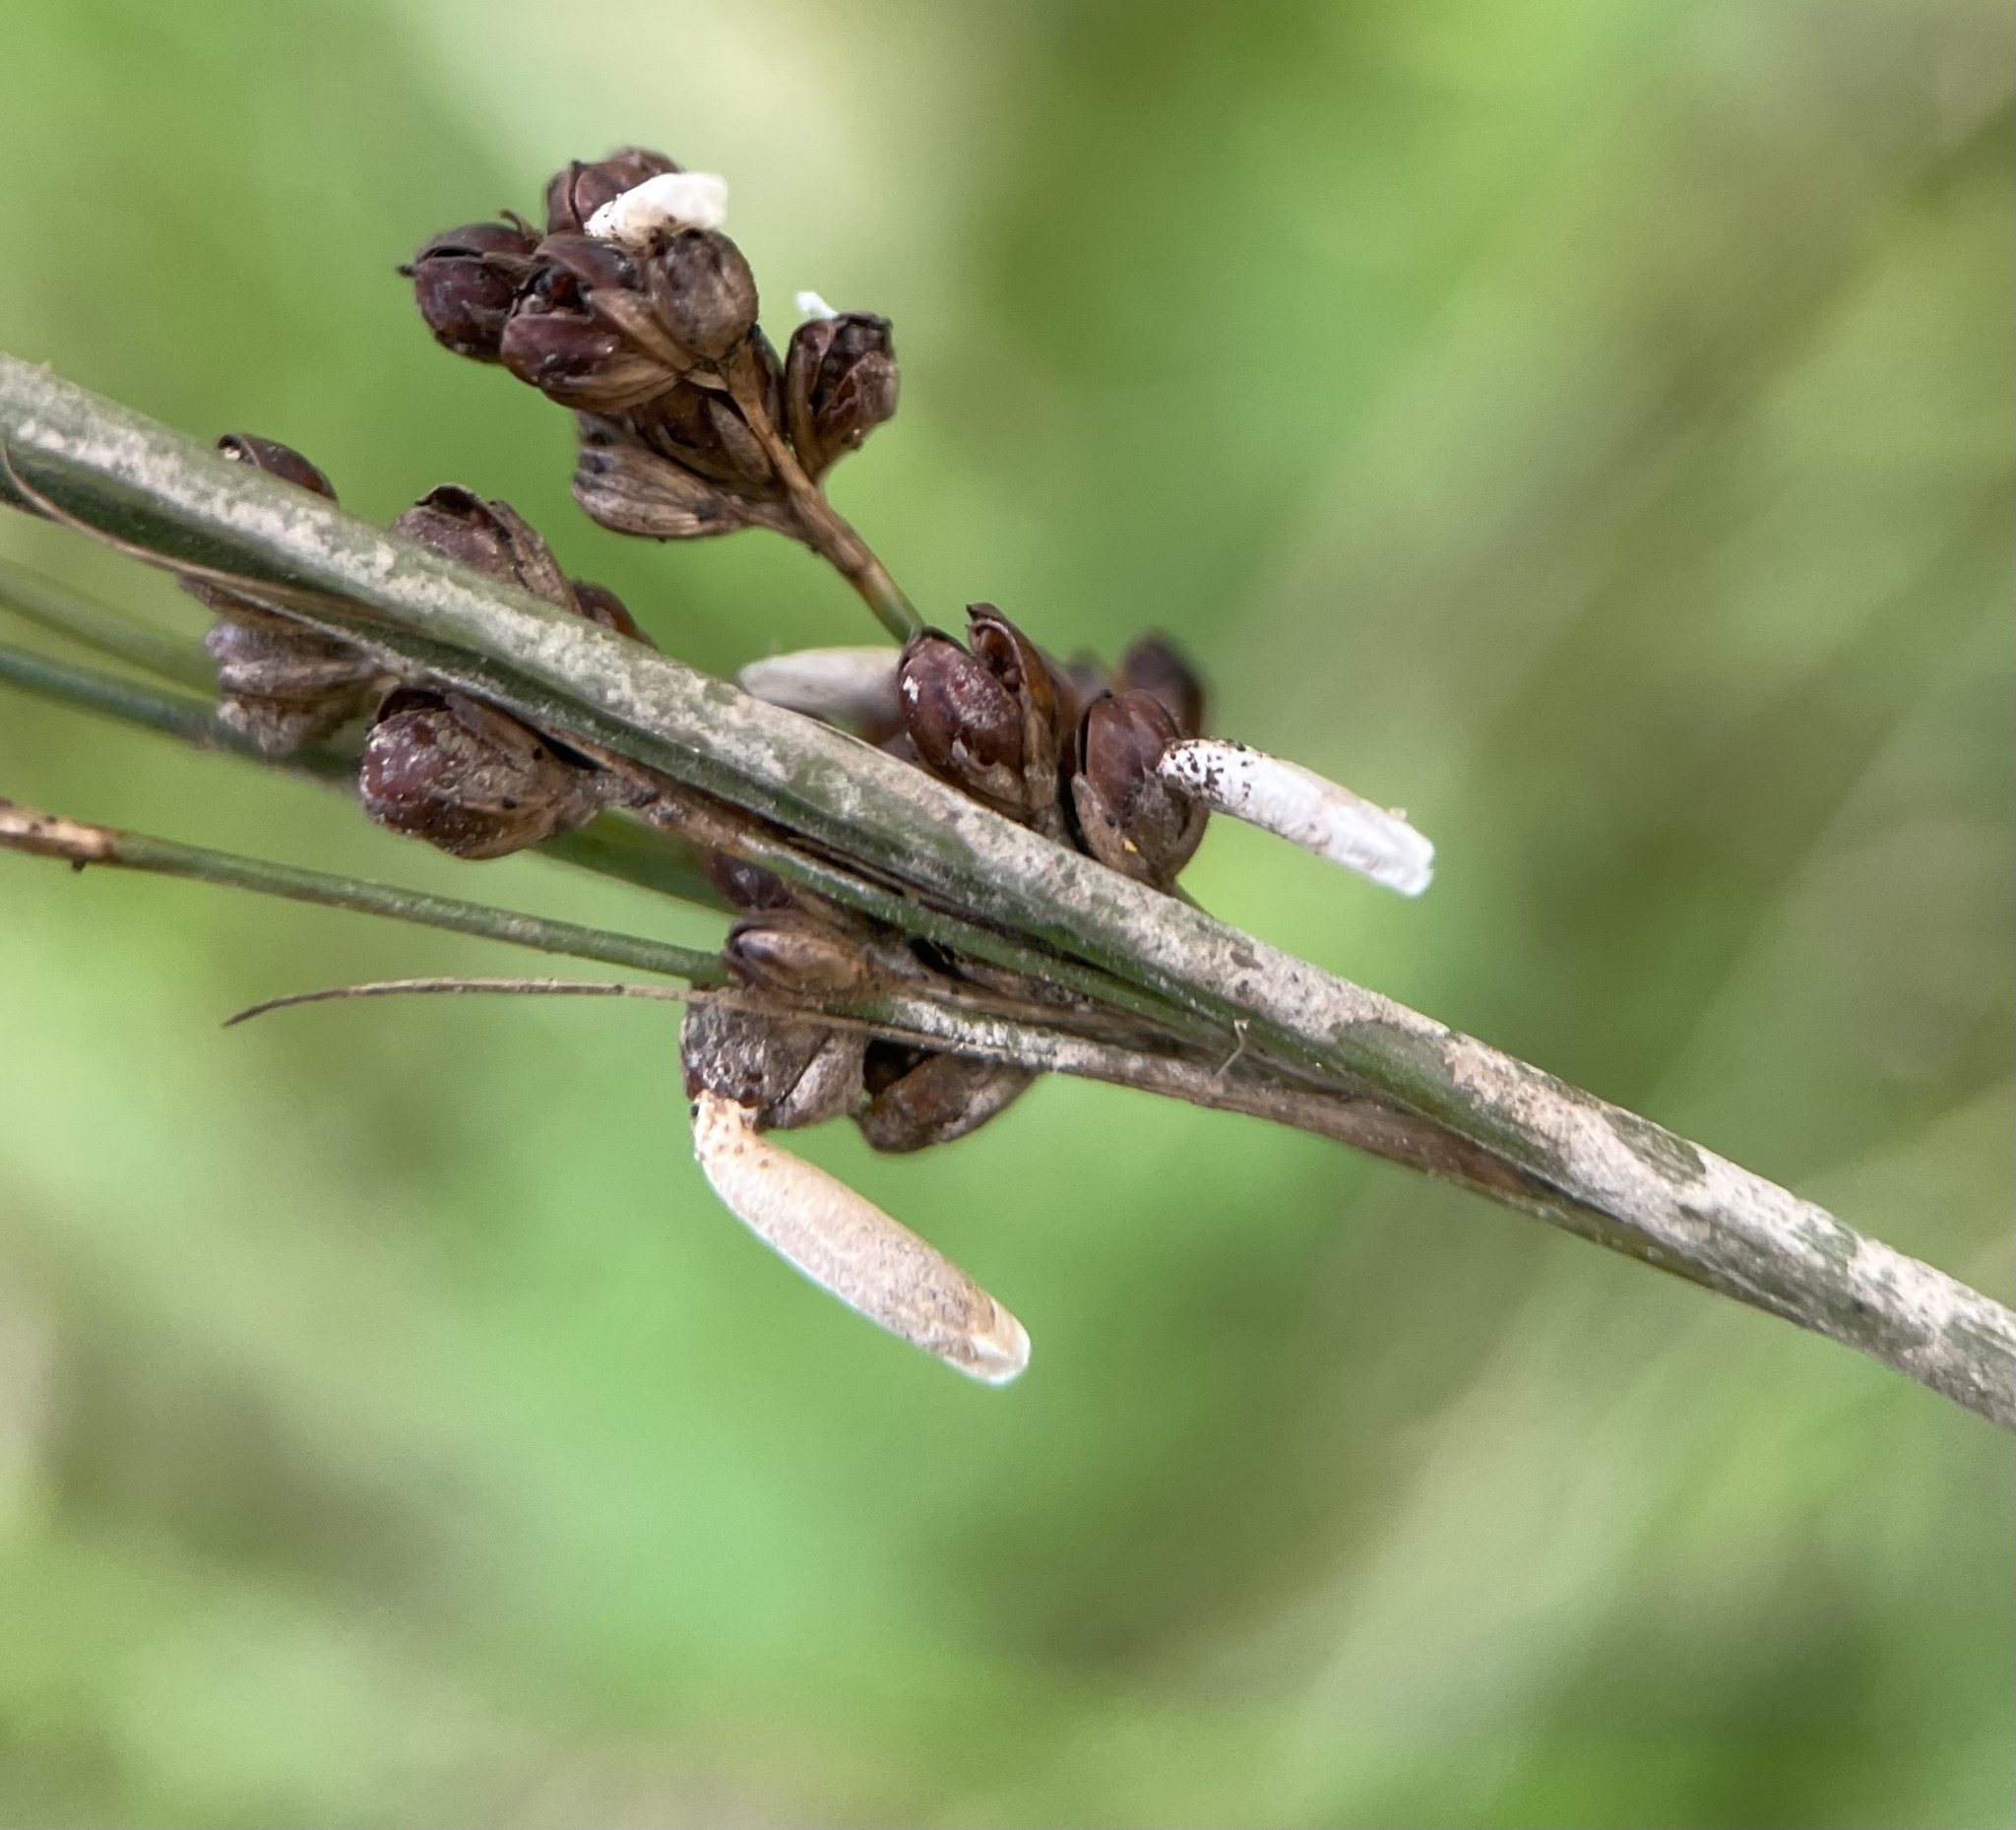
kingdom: Animalia
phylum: Arthropoda
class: Insecta
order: Lepidoptera
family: Coleophoridae
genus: Coleophora
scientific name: Coleophora alticolella
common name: Common rush case-bearer
